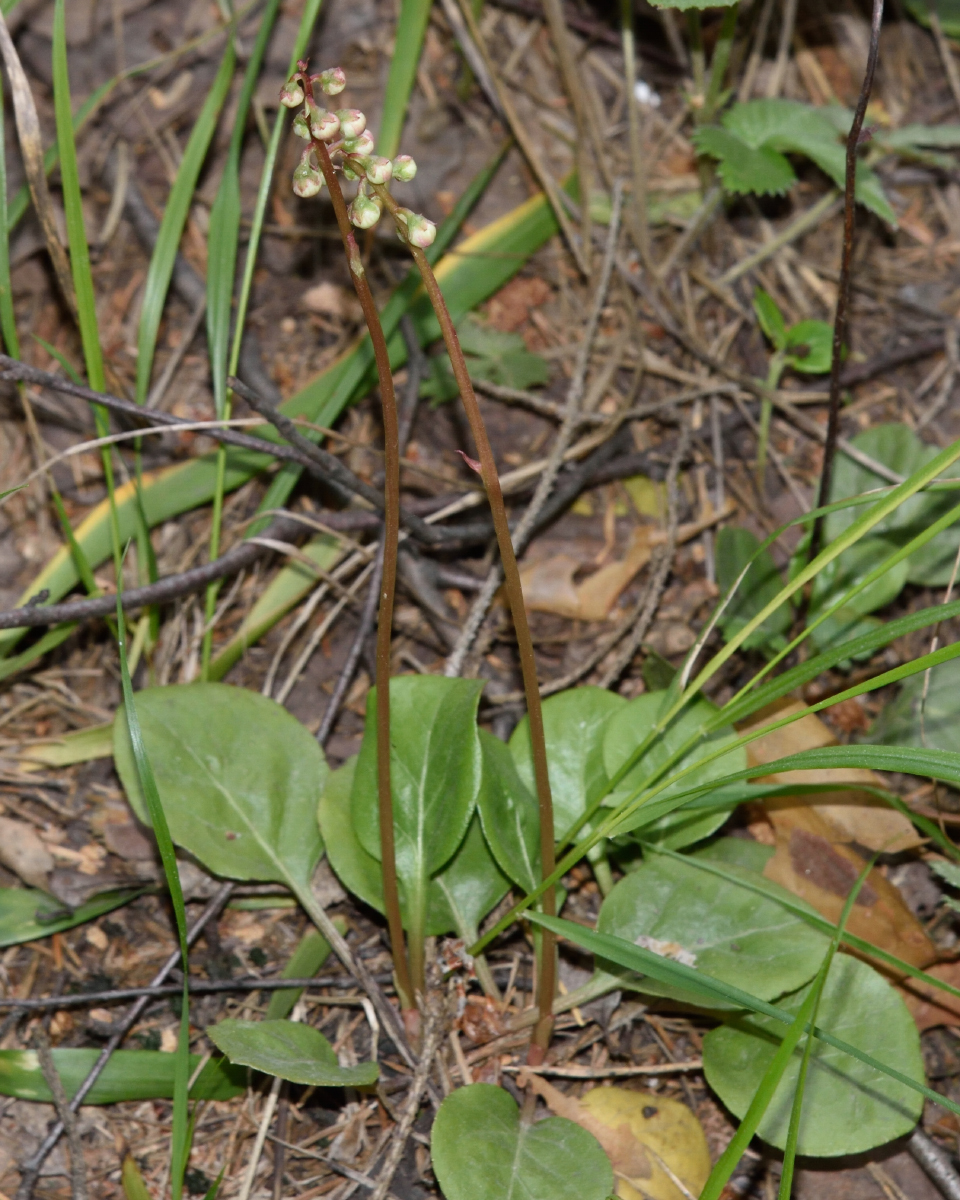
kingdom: Plantae
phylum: Tracheophyta
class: Magnoliopsida
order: Ericales
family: Ericaceae
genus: Pyrola
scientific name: Pyrola minor
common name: Common wintergreen
